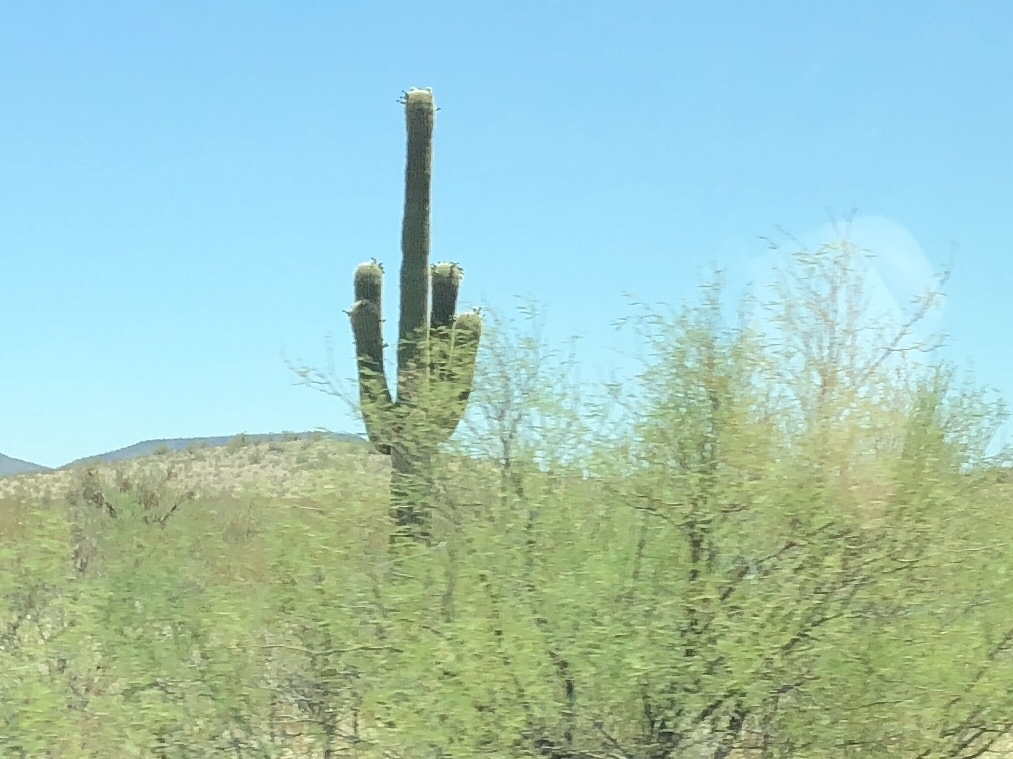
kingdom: Plantae
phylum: Tracheophyta
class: Magnoliopsida
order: Caryophyllales
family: Cactaceae
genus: Carnegiea
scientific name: Carnegiea gigantea
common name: Saguaro
